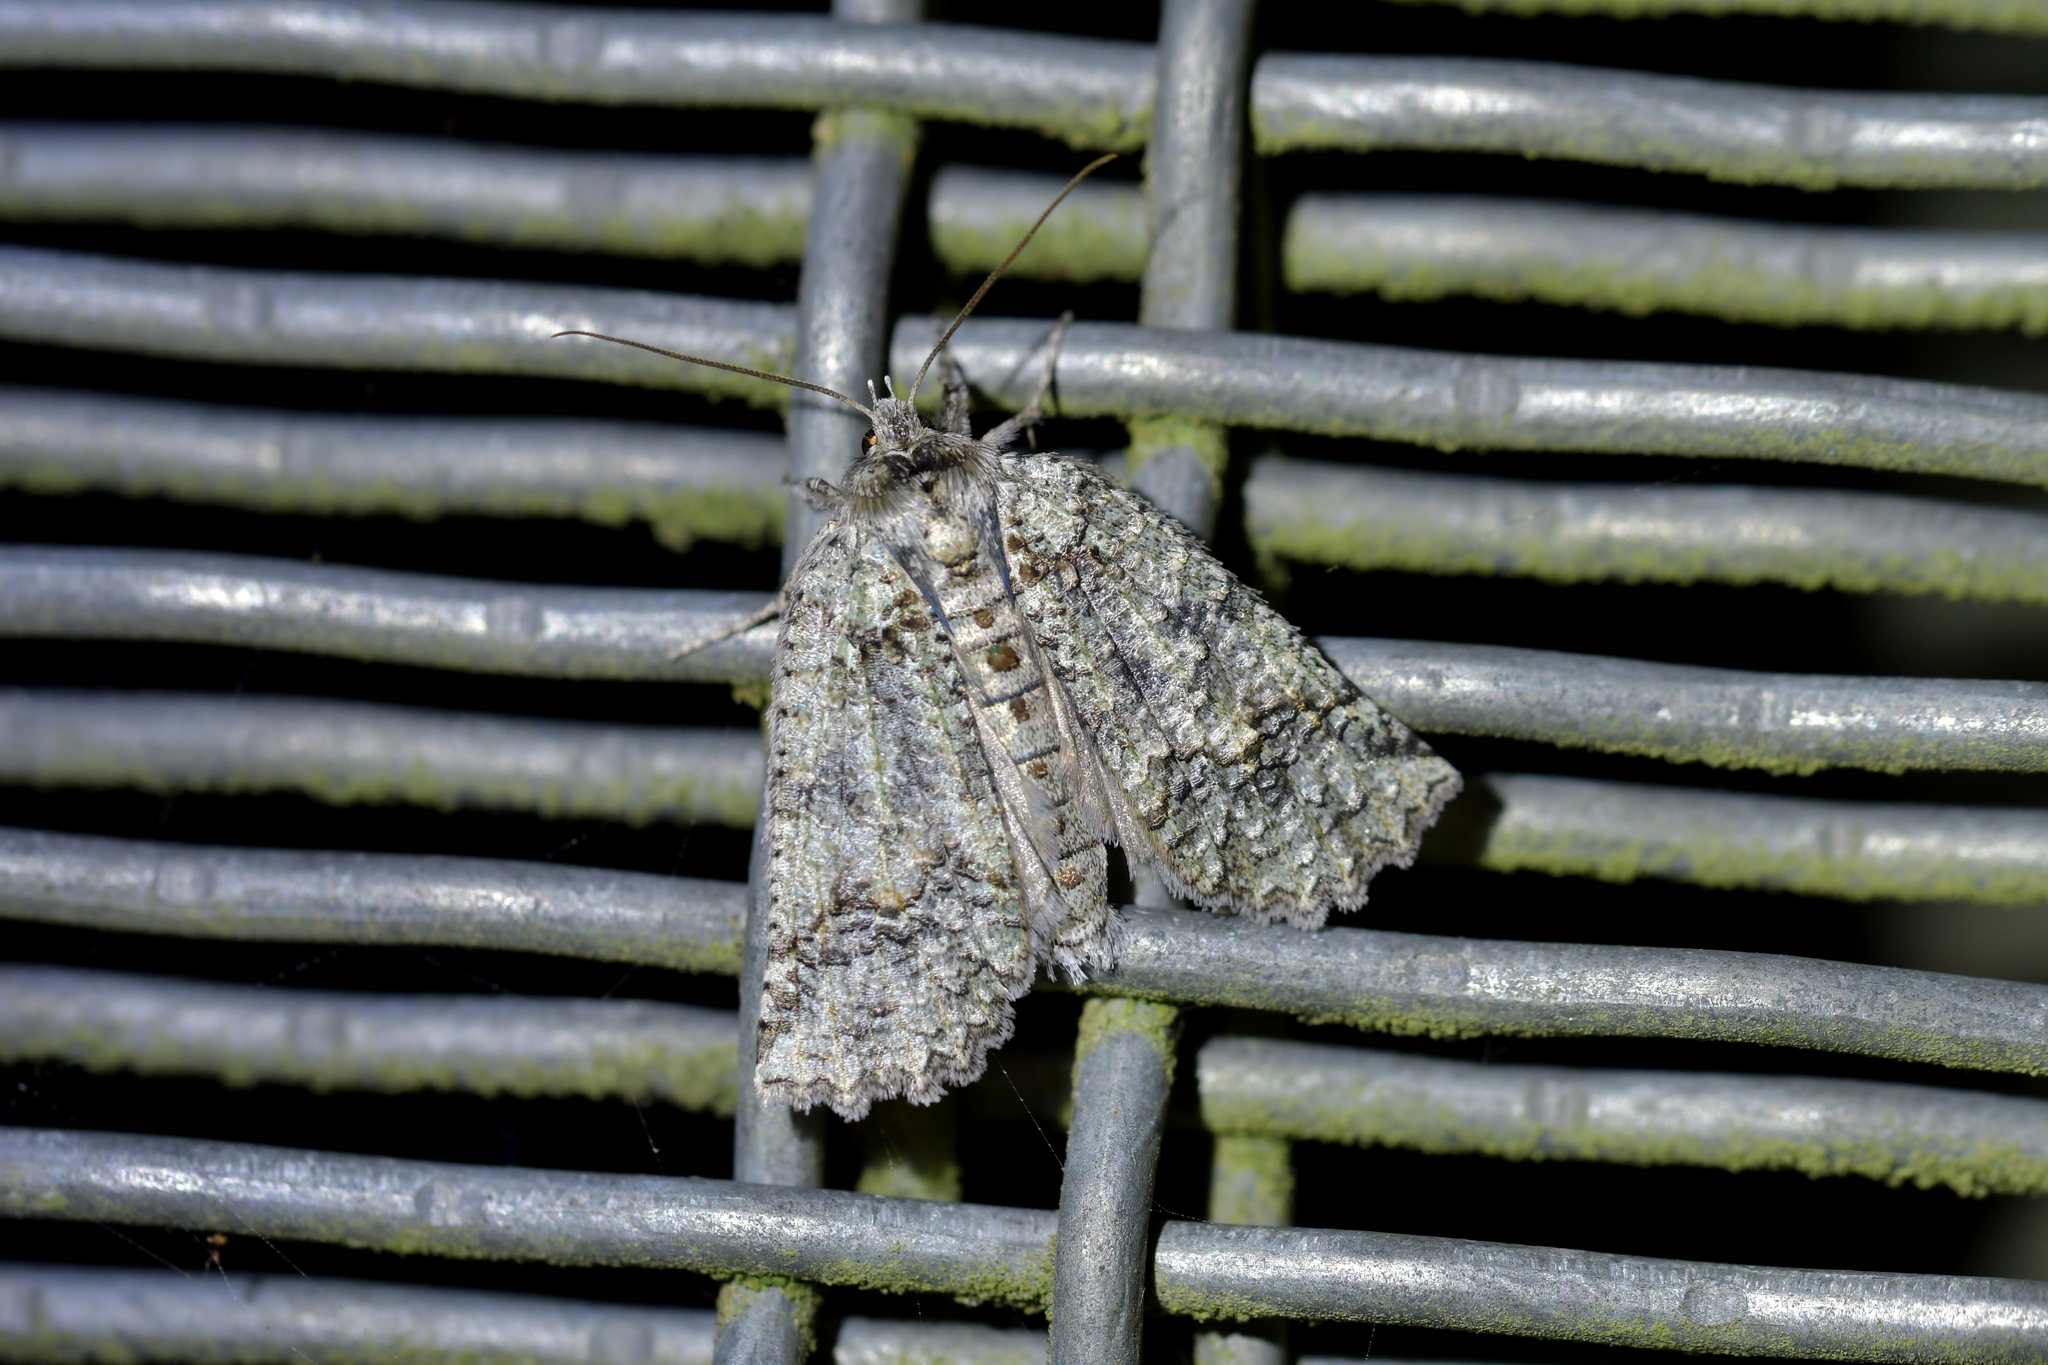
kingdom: Animalia
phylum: Arthropoda
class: Insecta
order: Lepidoptera
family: Geometridae
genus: Declana
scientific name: Declana floccosa
